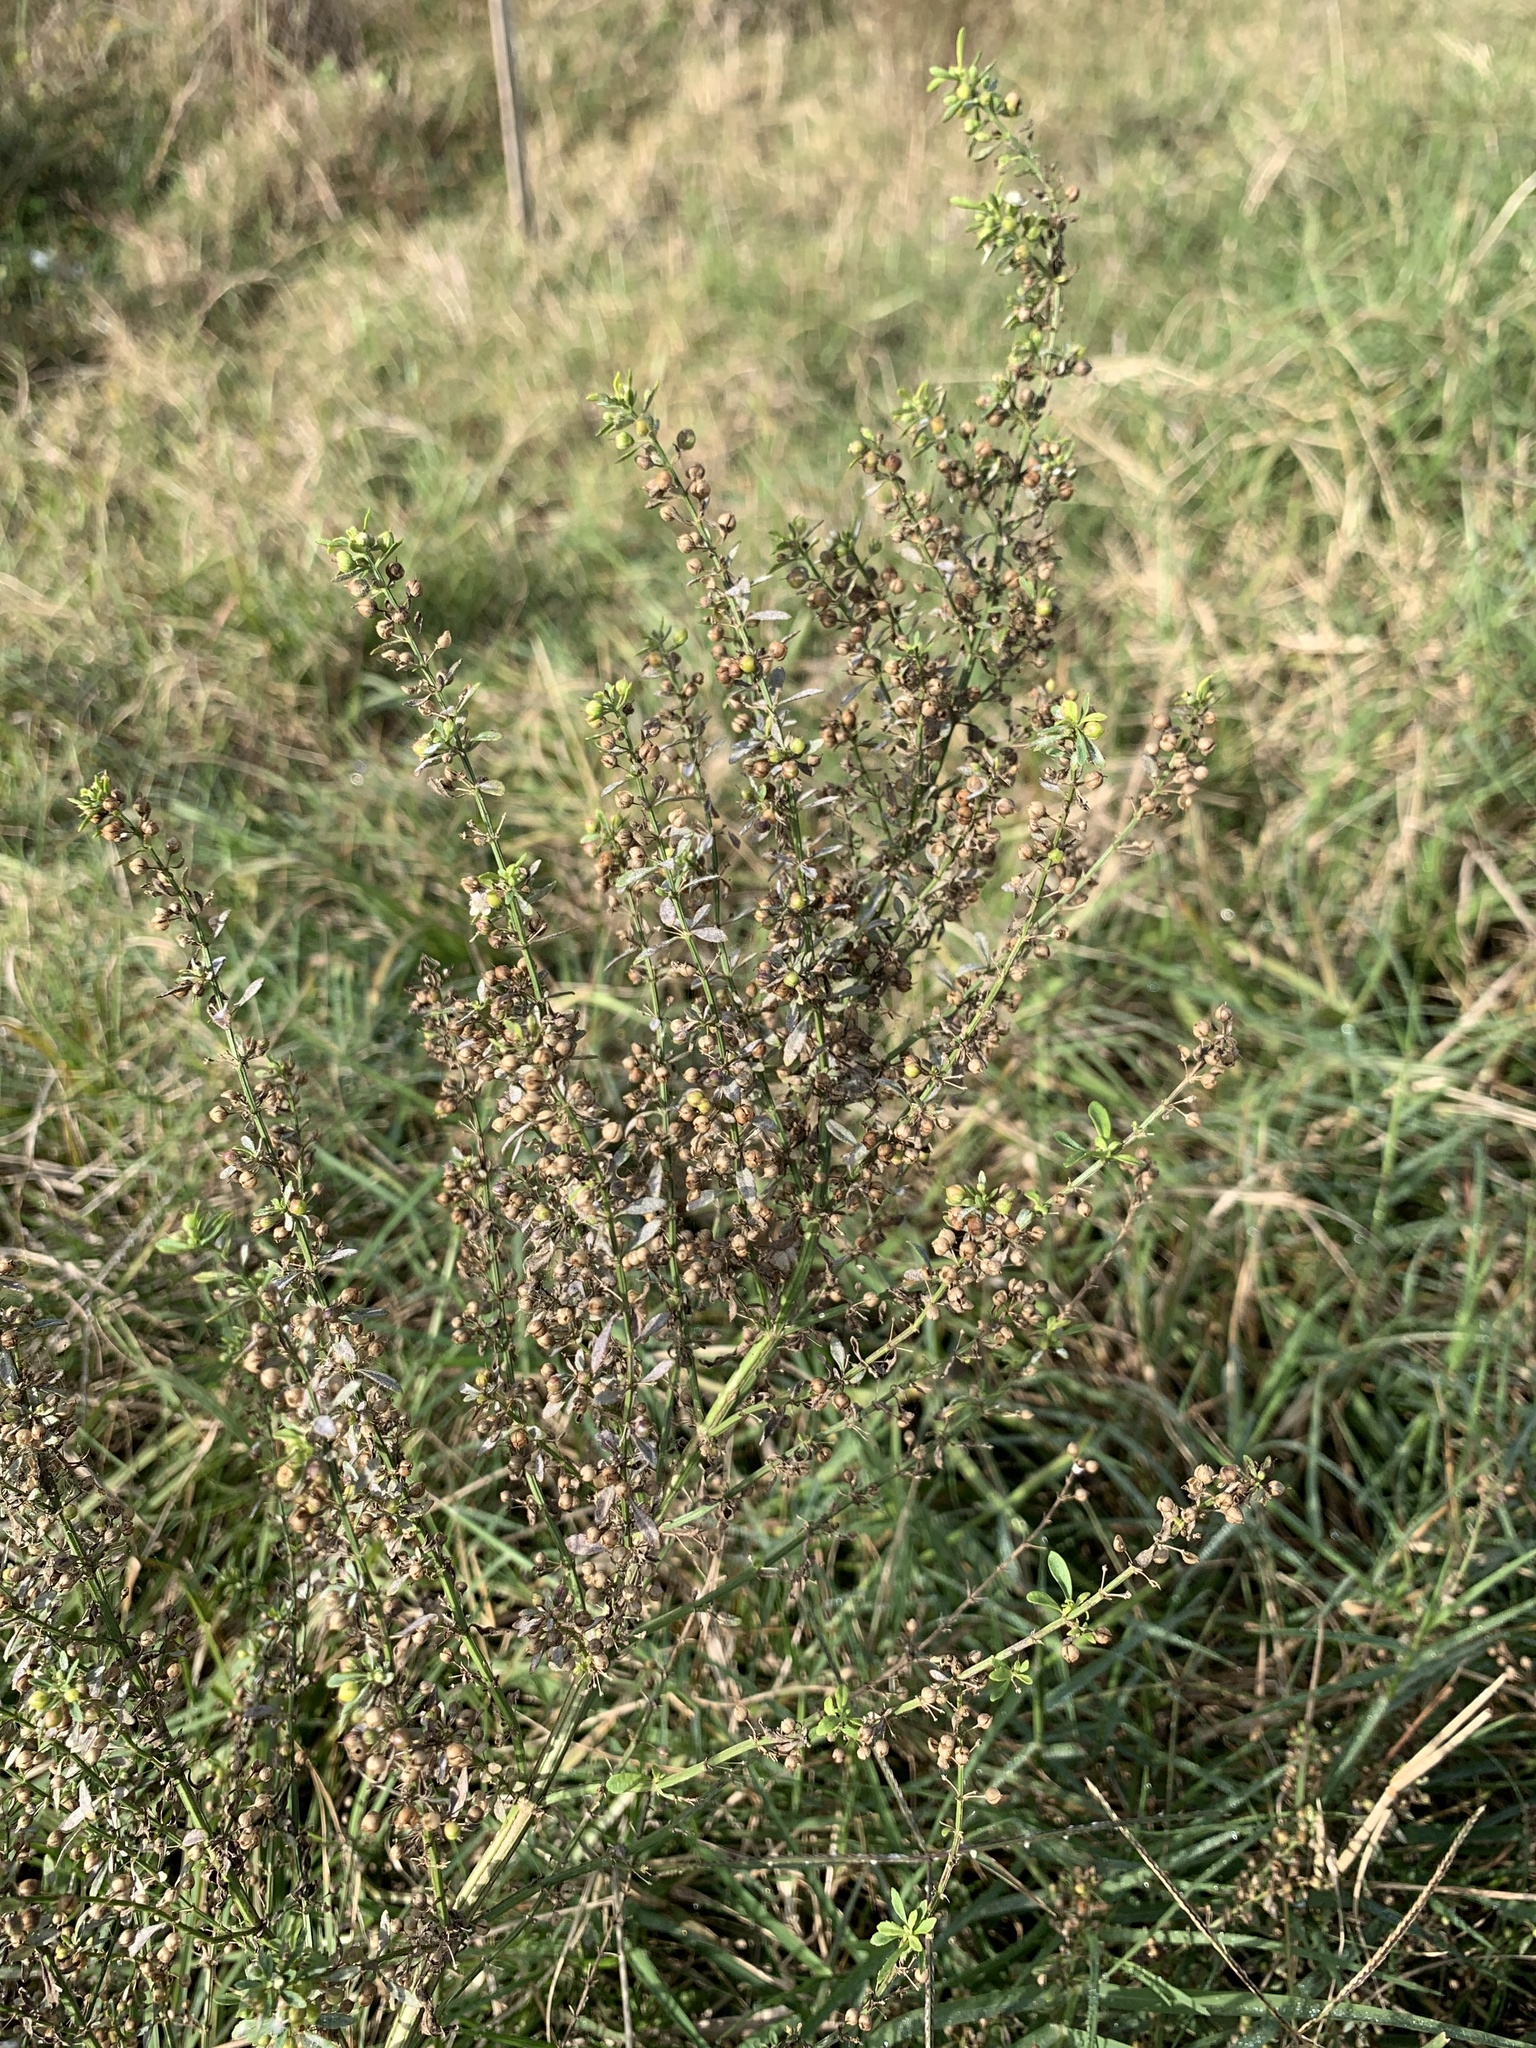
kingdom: Plantae
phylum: Tracheophyta
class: Magnoliopsida
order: Lamiales
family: Plantaginaceae
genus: Scoparia
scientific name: Scoparia dulcis
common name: Scoparia-weed
